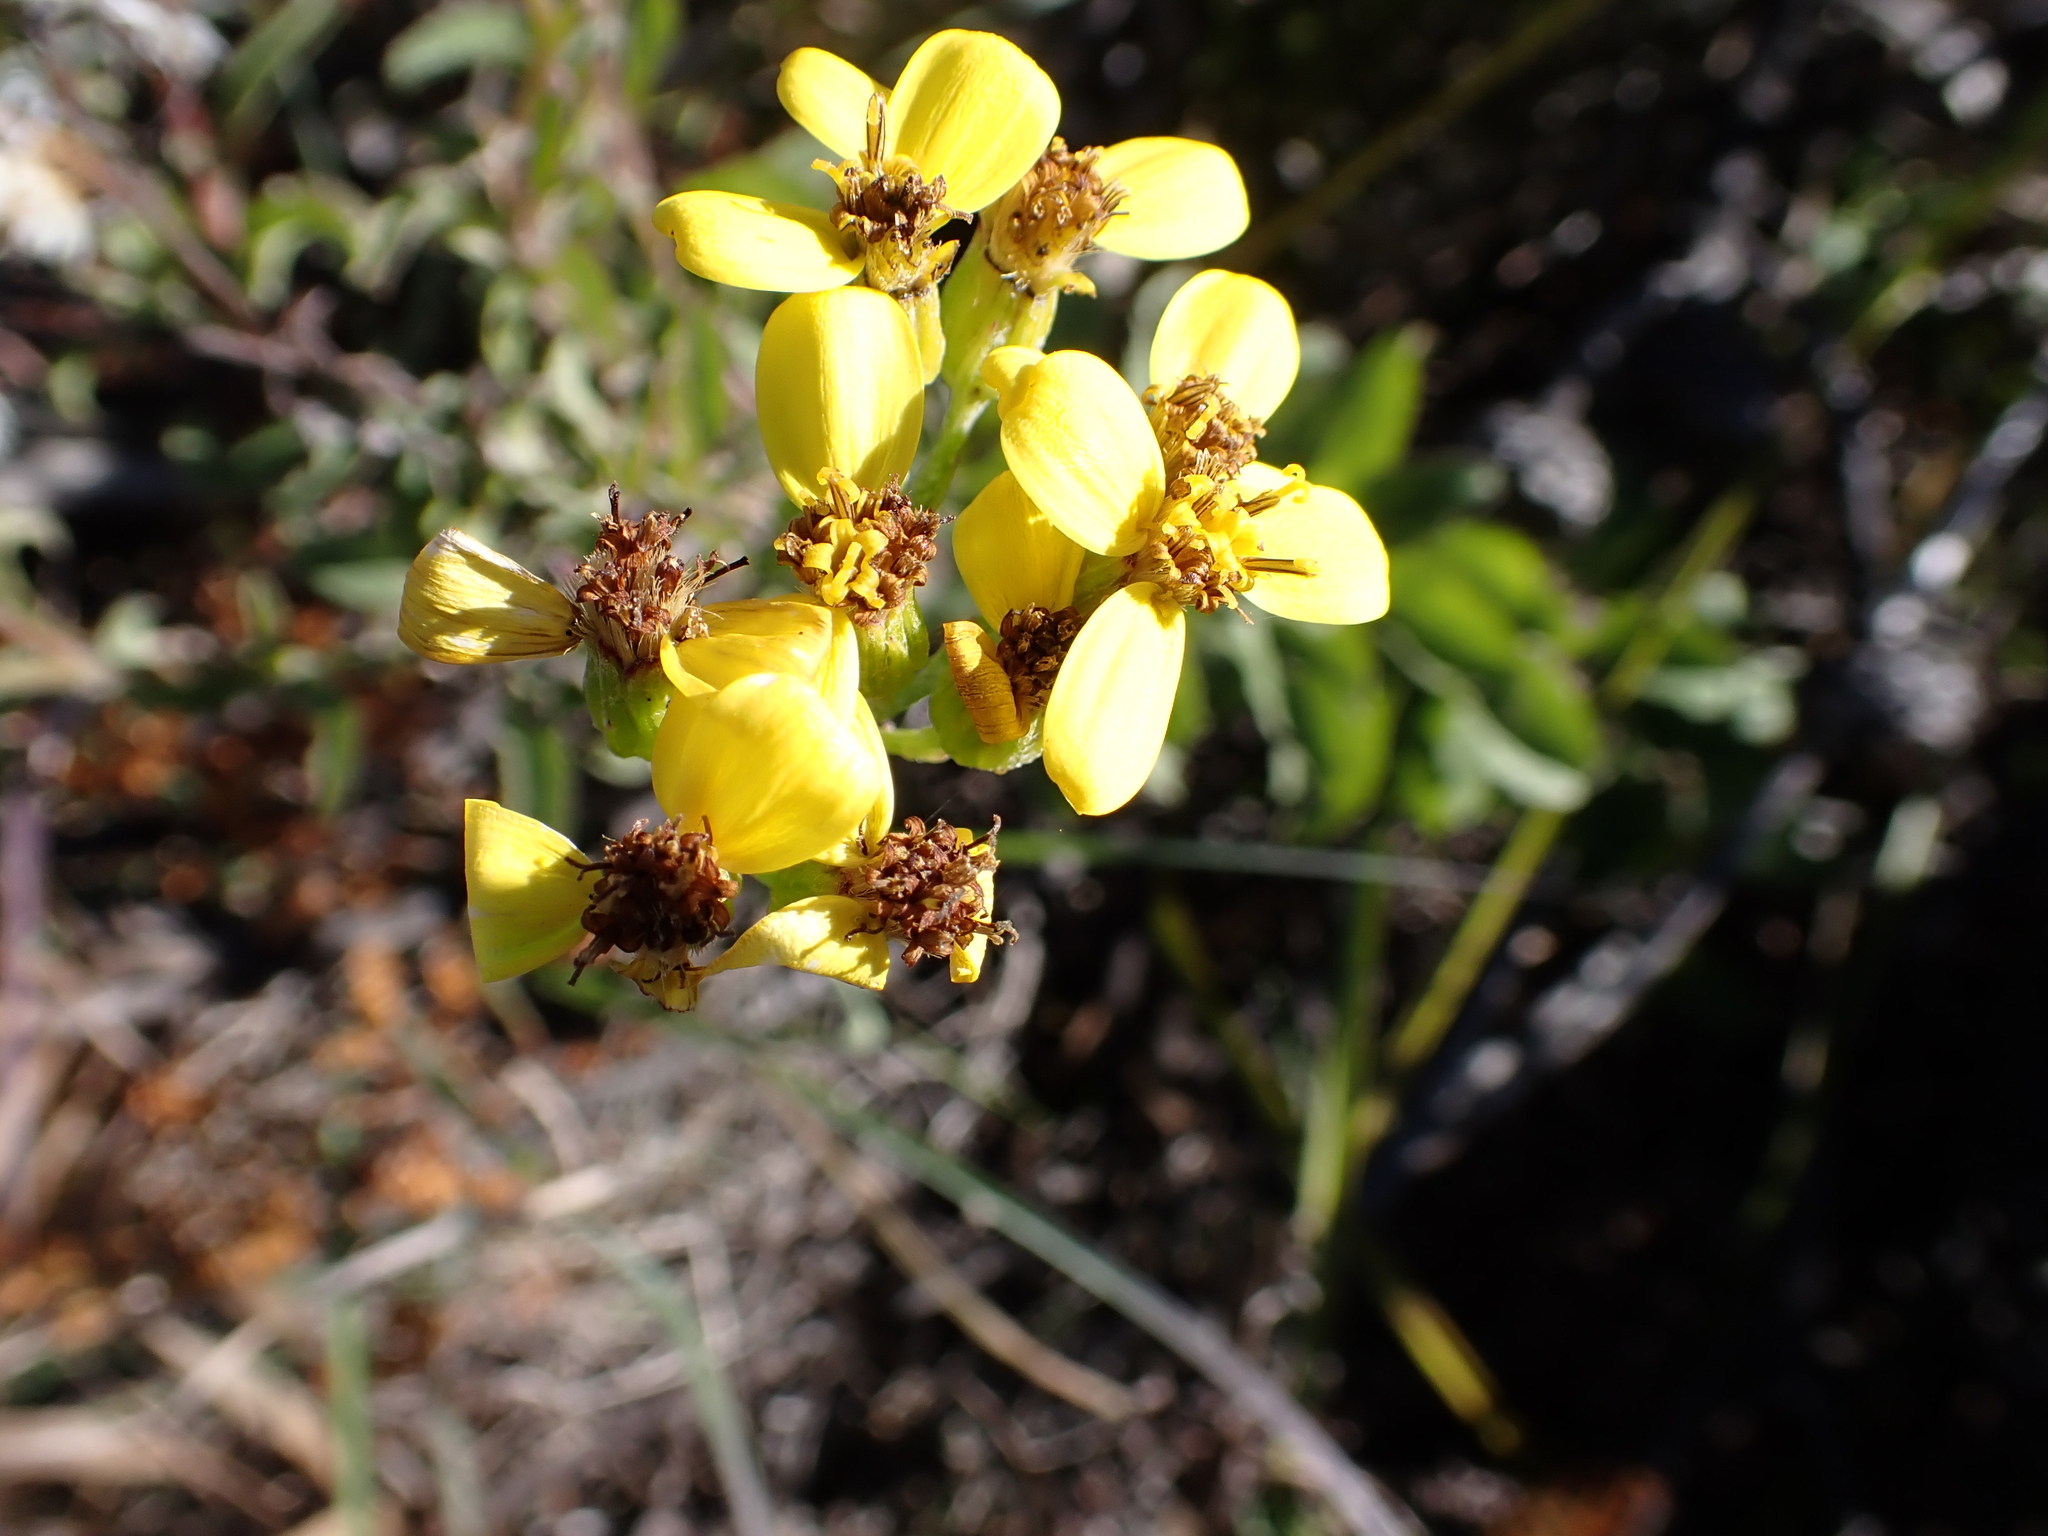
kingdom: Plantae
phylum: Tracheophyta
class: Magnoliopsida
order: Asterales
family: Asteraceae
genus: Senecio
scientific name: Senecio crenatus
